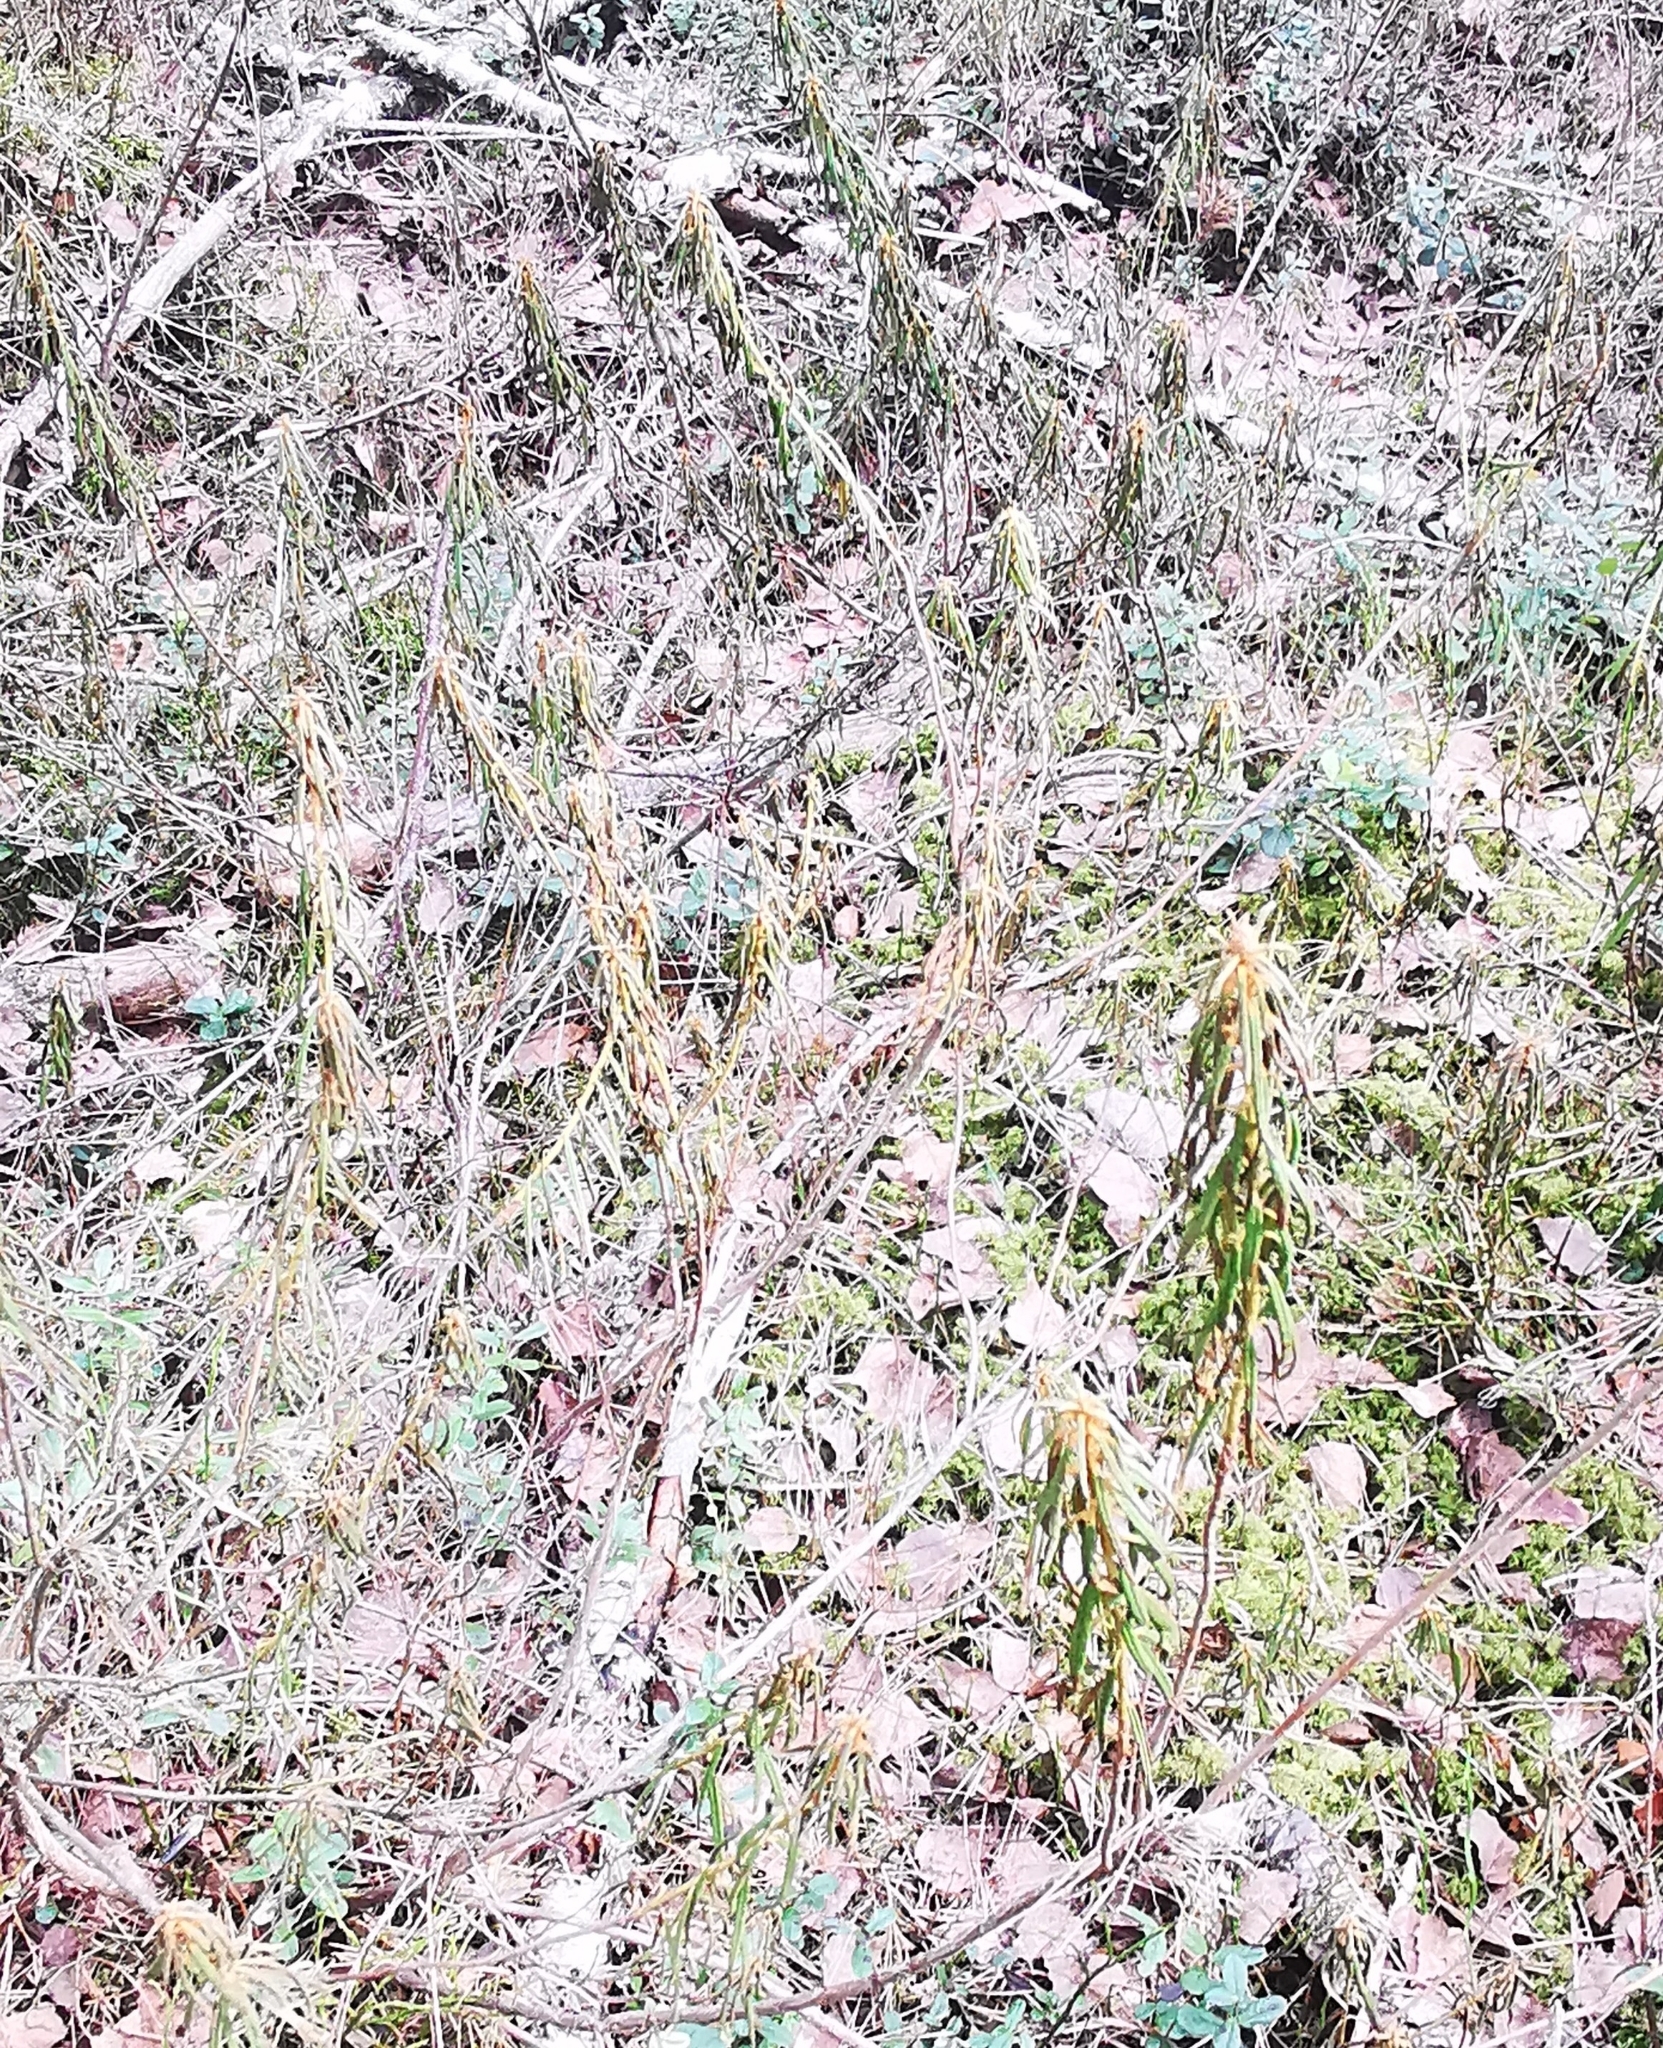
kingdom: Plantae
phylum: Tracheophyta
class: Magnoliopsida
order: Ericales
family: Ericaceae
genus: Rhododendron
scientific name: Rhododendron tomentosum
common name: Marsh labrador tea
